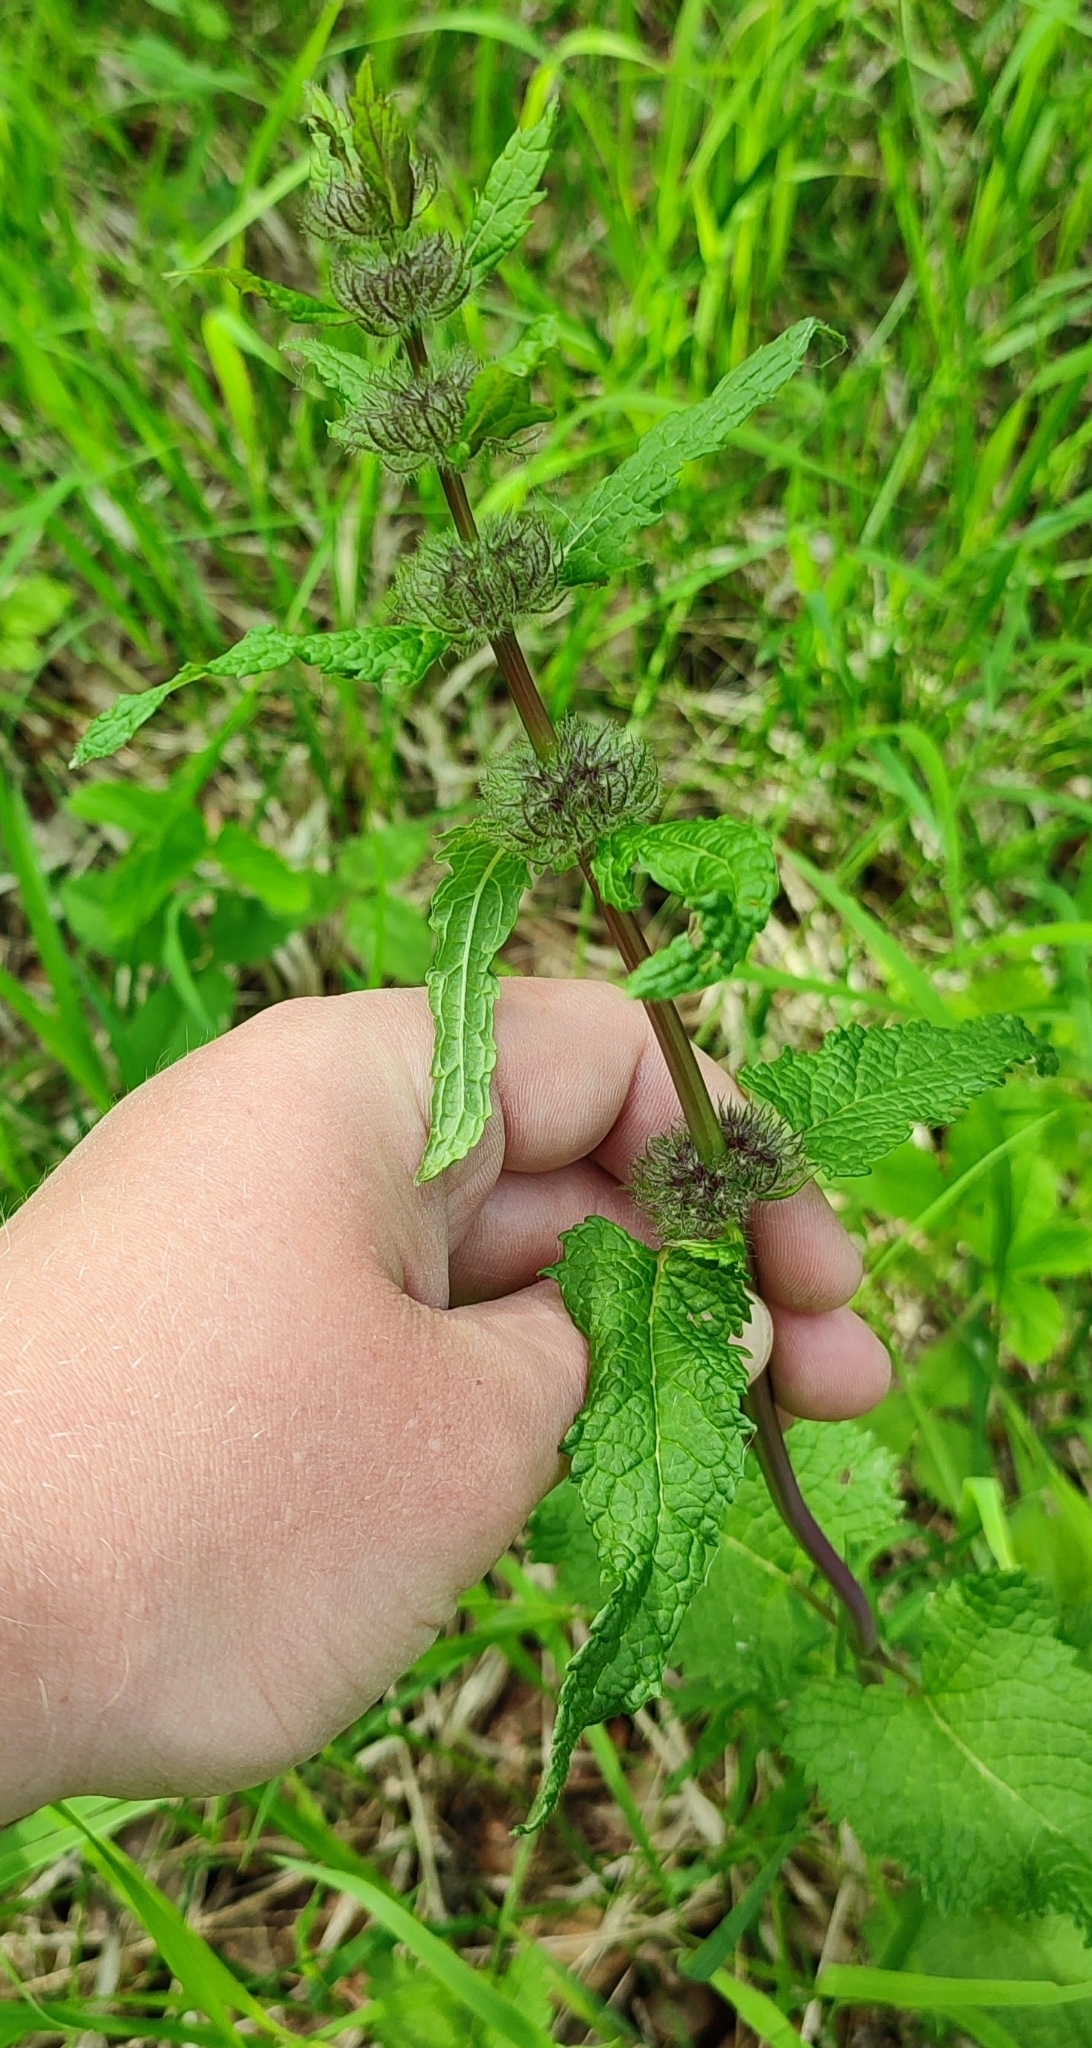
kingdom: Plantae
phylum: Tracheophyta
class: Magnoliopsida
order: Lamiales
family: Lamiaceae
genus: Phlomoides
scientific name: Phlomoides tuberosa
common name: Tuberous jerusalem sage
